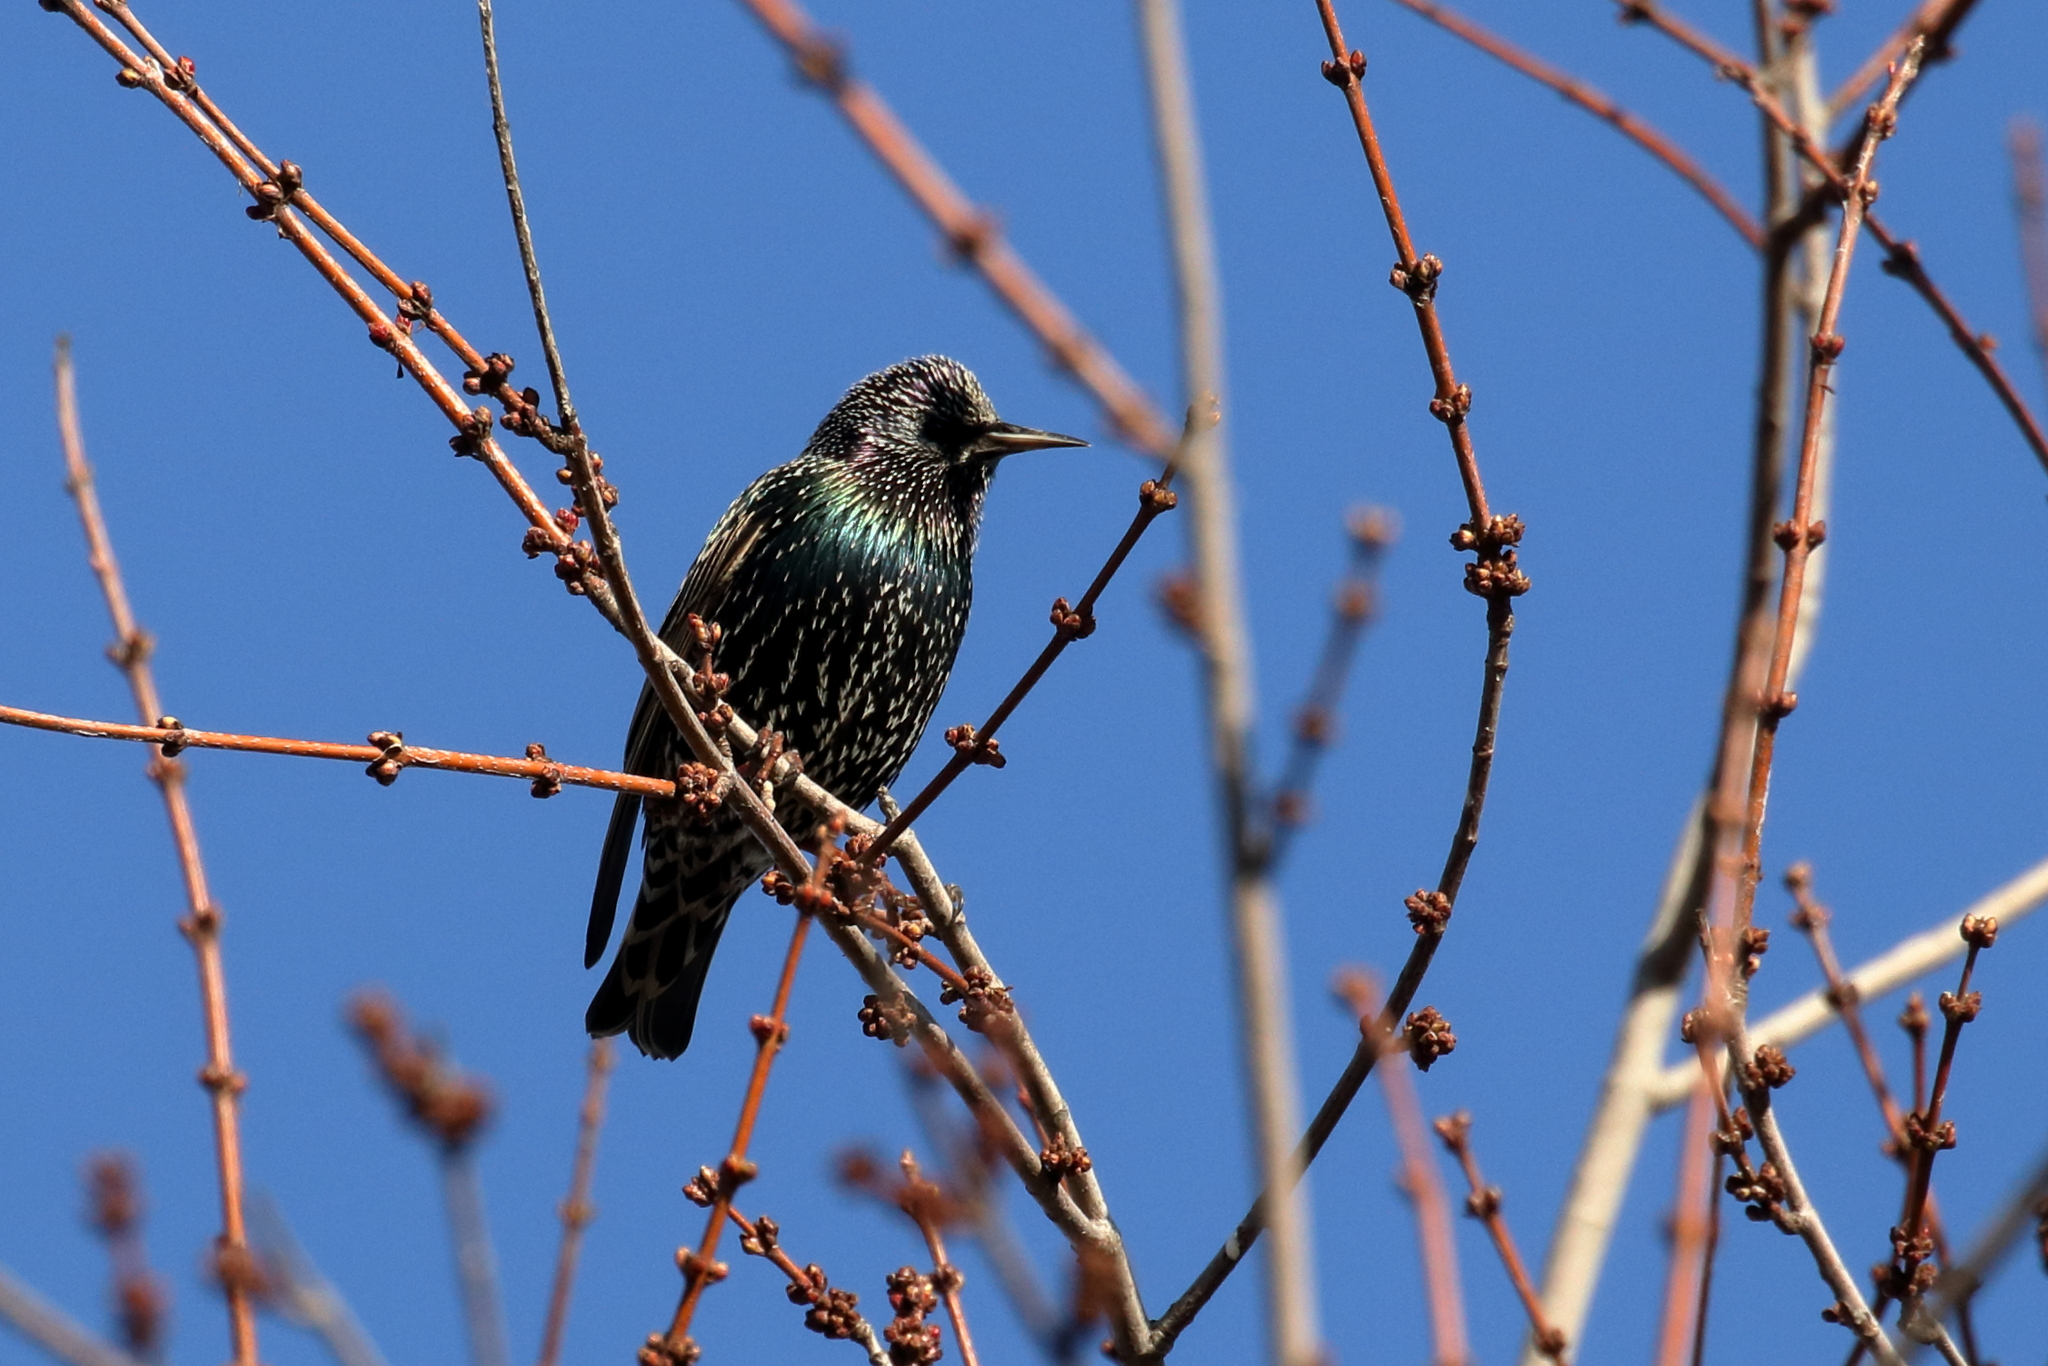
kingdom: Animalia
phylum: Chordata
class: Aves
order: Passeriformes
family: Sturnidae
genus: Sturnus
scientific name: Sturnus vulgaris
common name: Common starling
